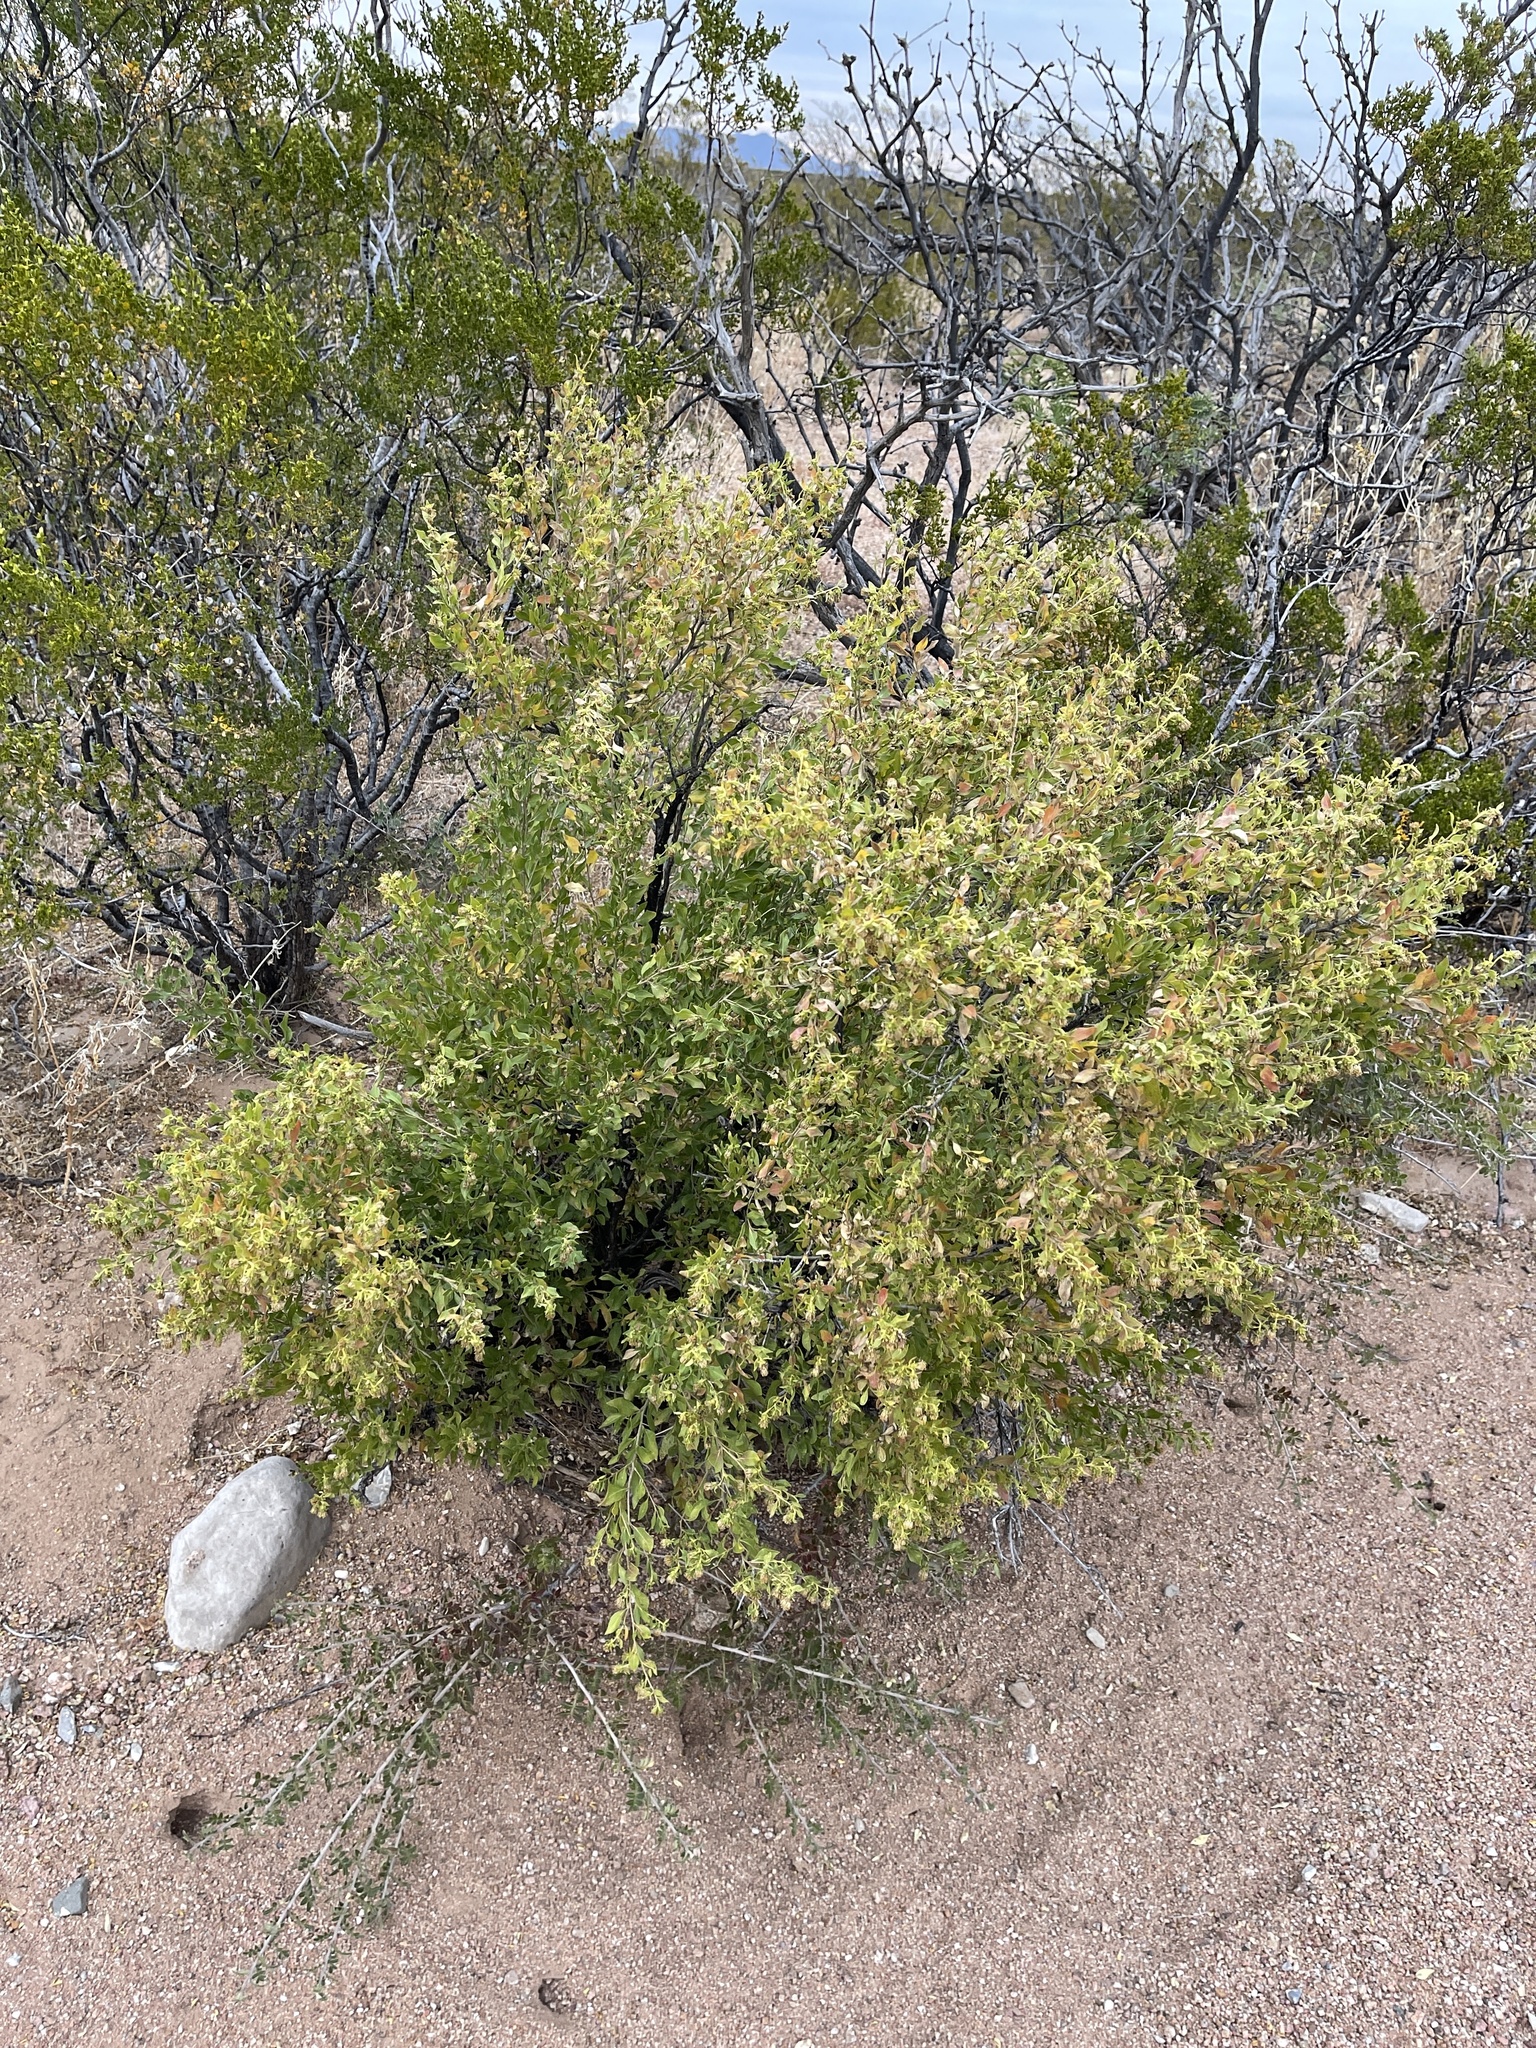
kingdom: Plantae
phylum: Tracheophyta
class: Magnoliopsida
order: Asterales
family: Asteraceae
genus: Flourensia
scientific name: Flourensia cernua
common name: Varnishbush
